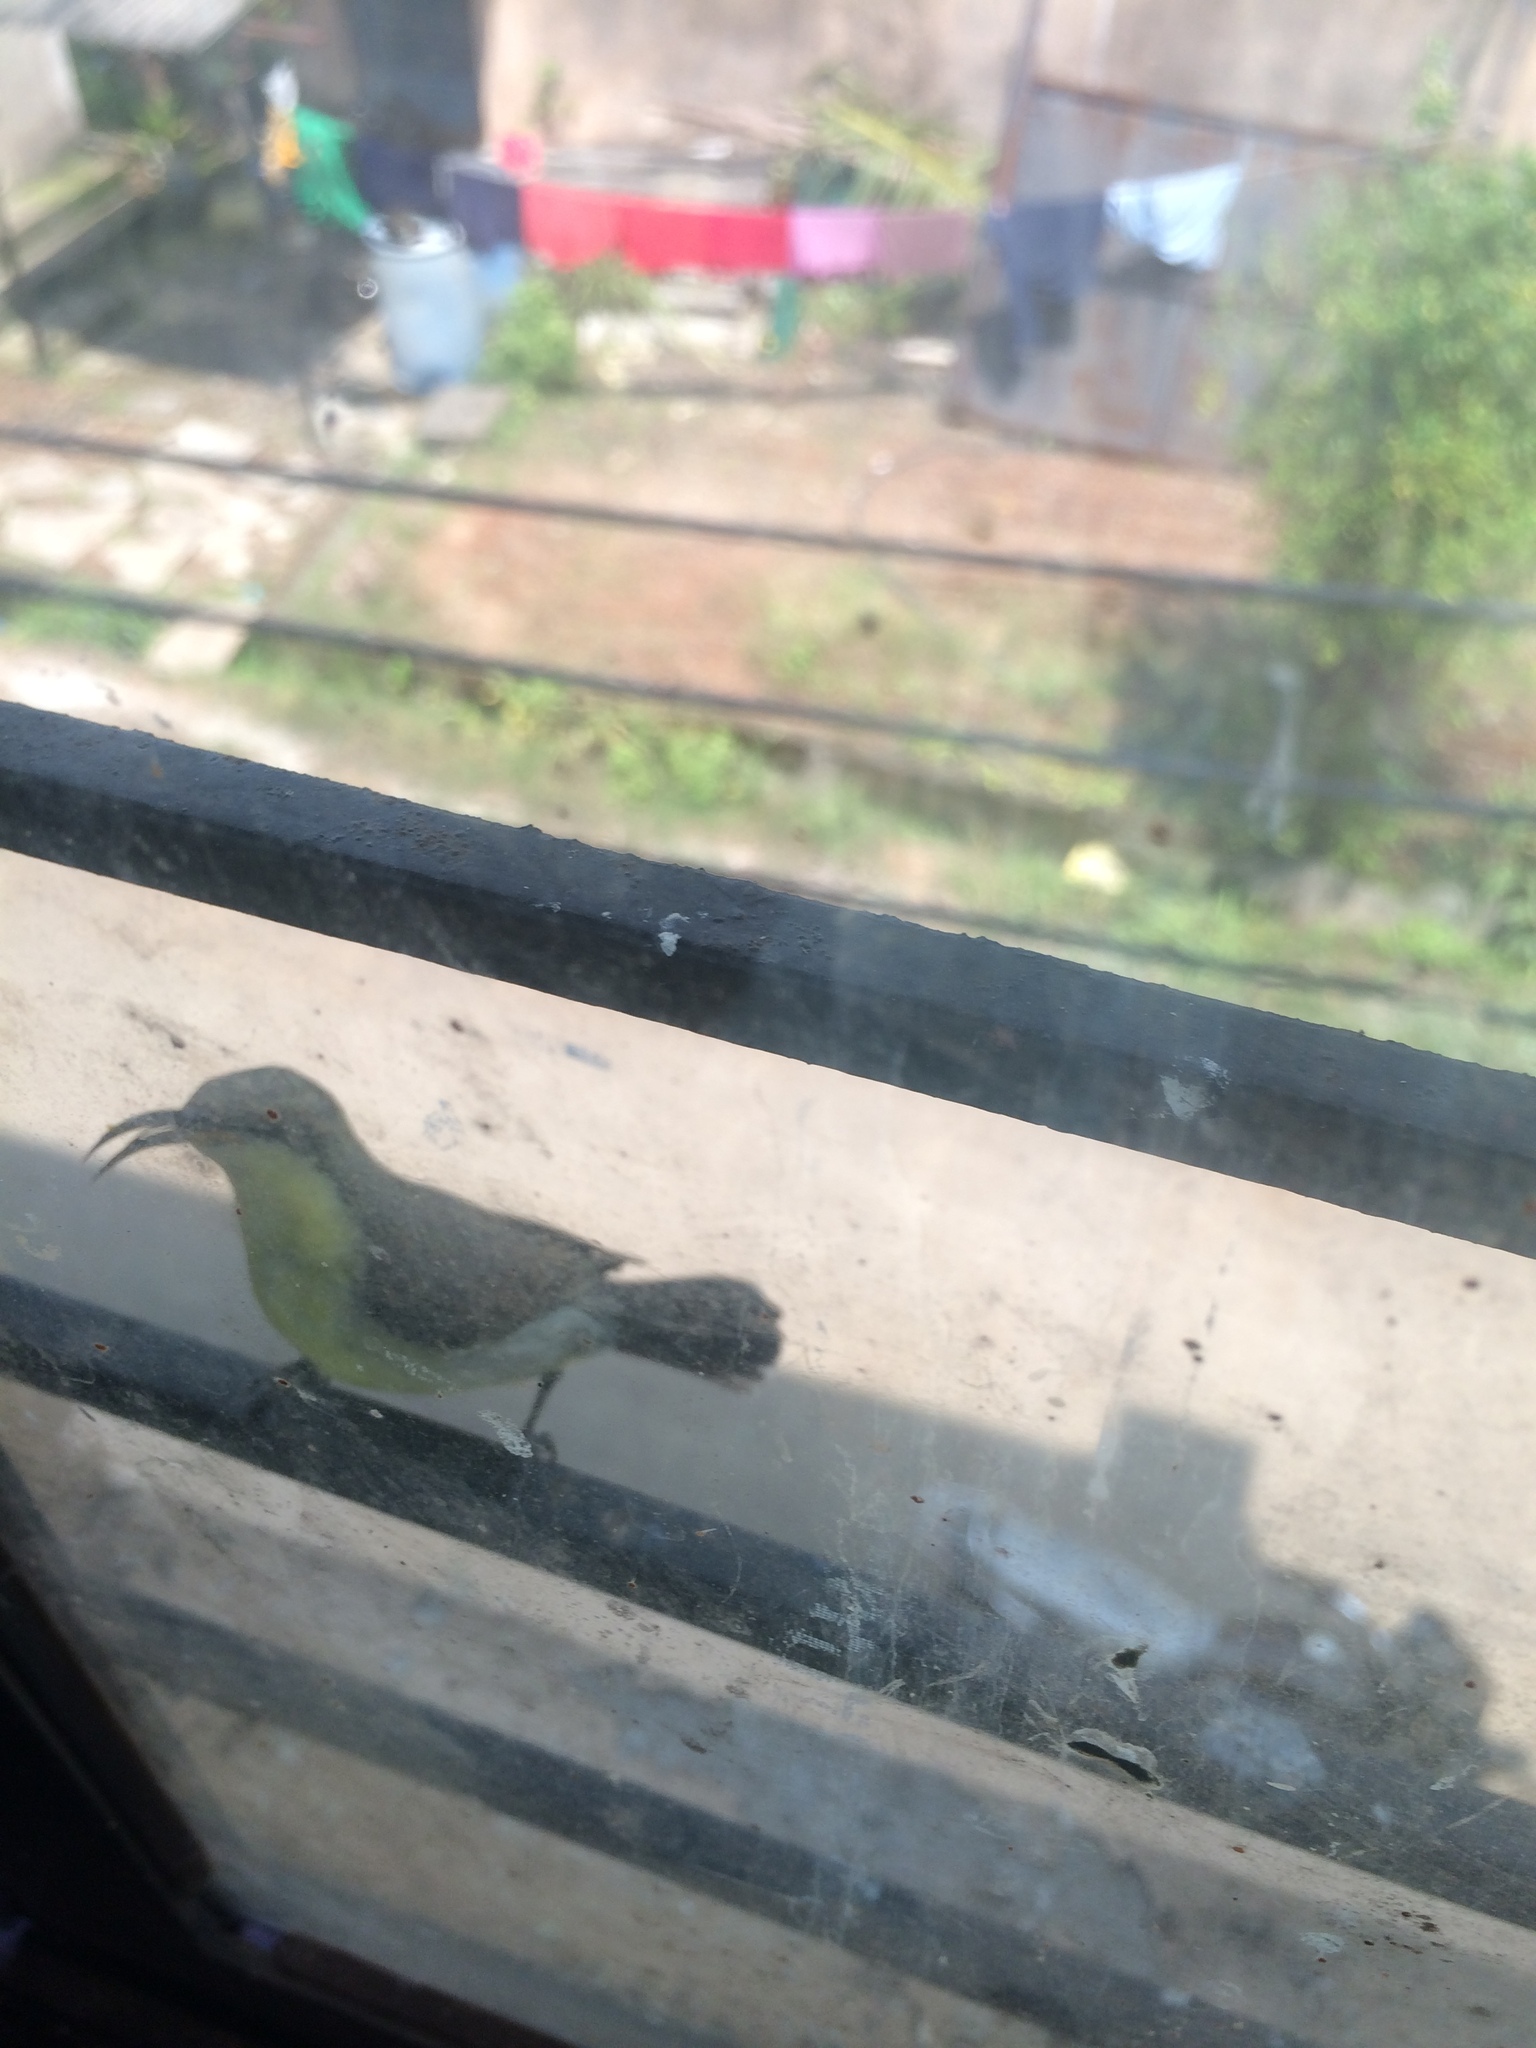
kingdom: Animalia
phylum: Chordata
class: Aves
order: Passeriformes
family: Nectariniidae
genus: Cinnyris
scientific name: Cinnyris asiaticus
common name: Purple sunbird
